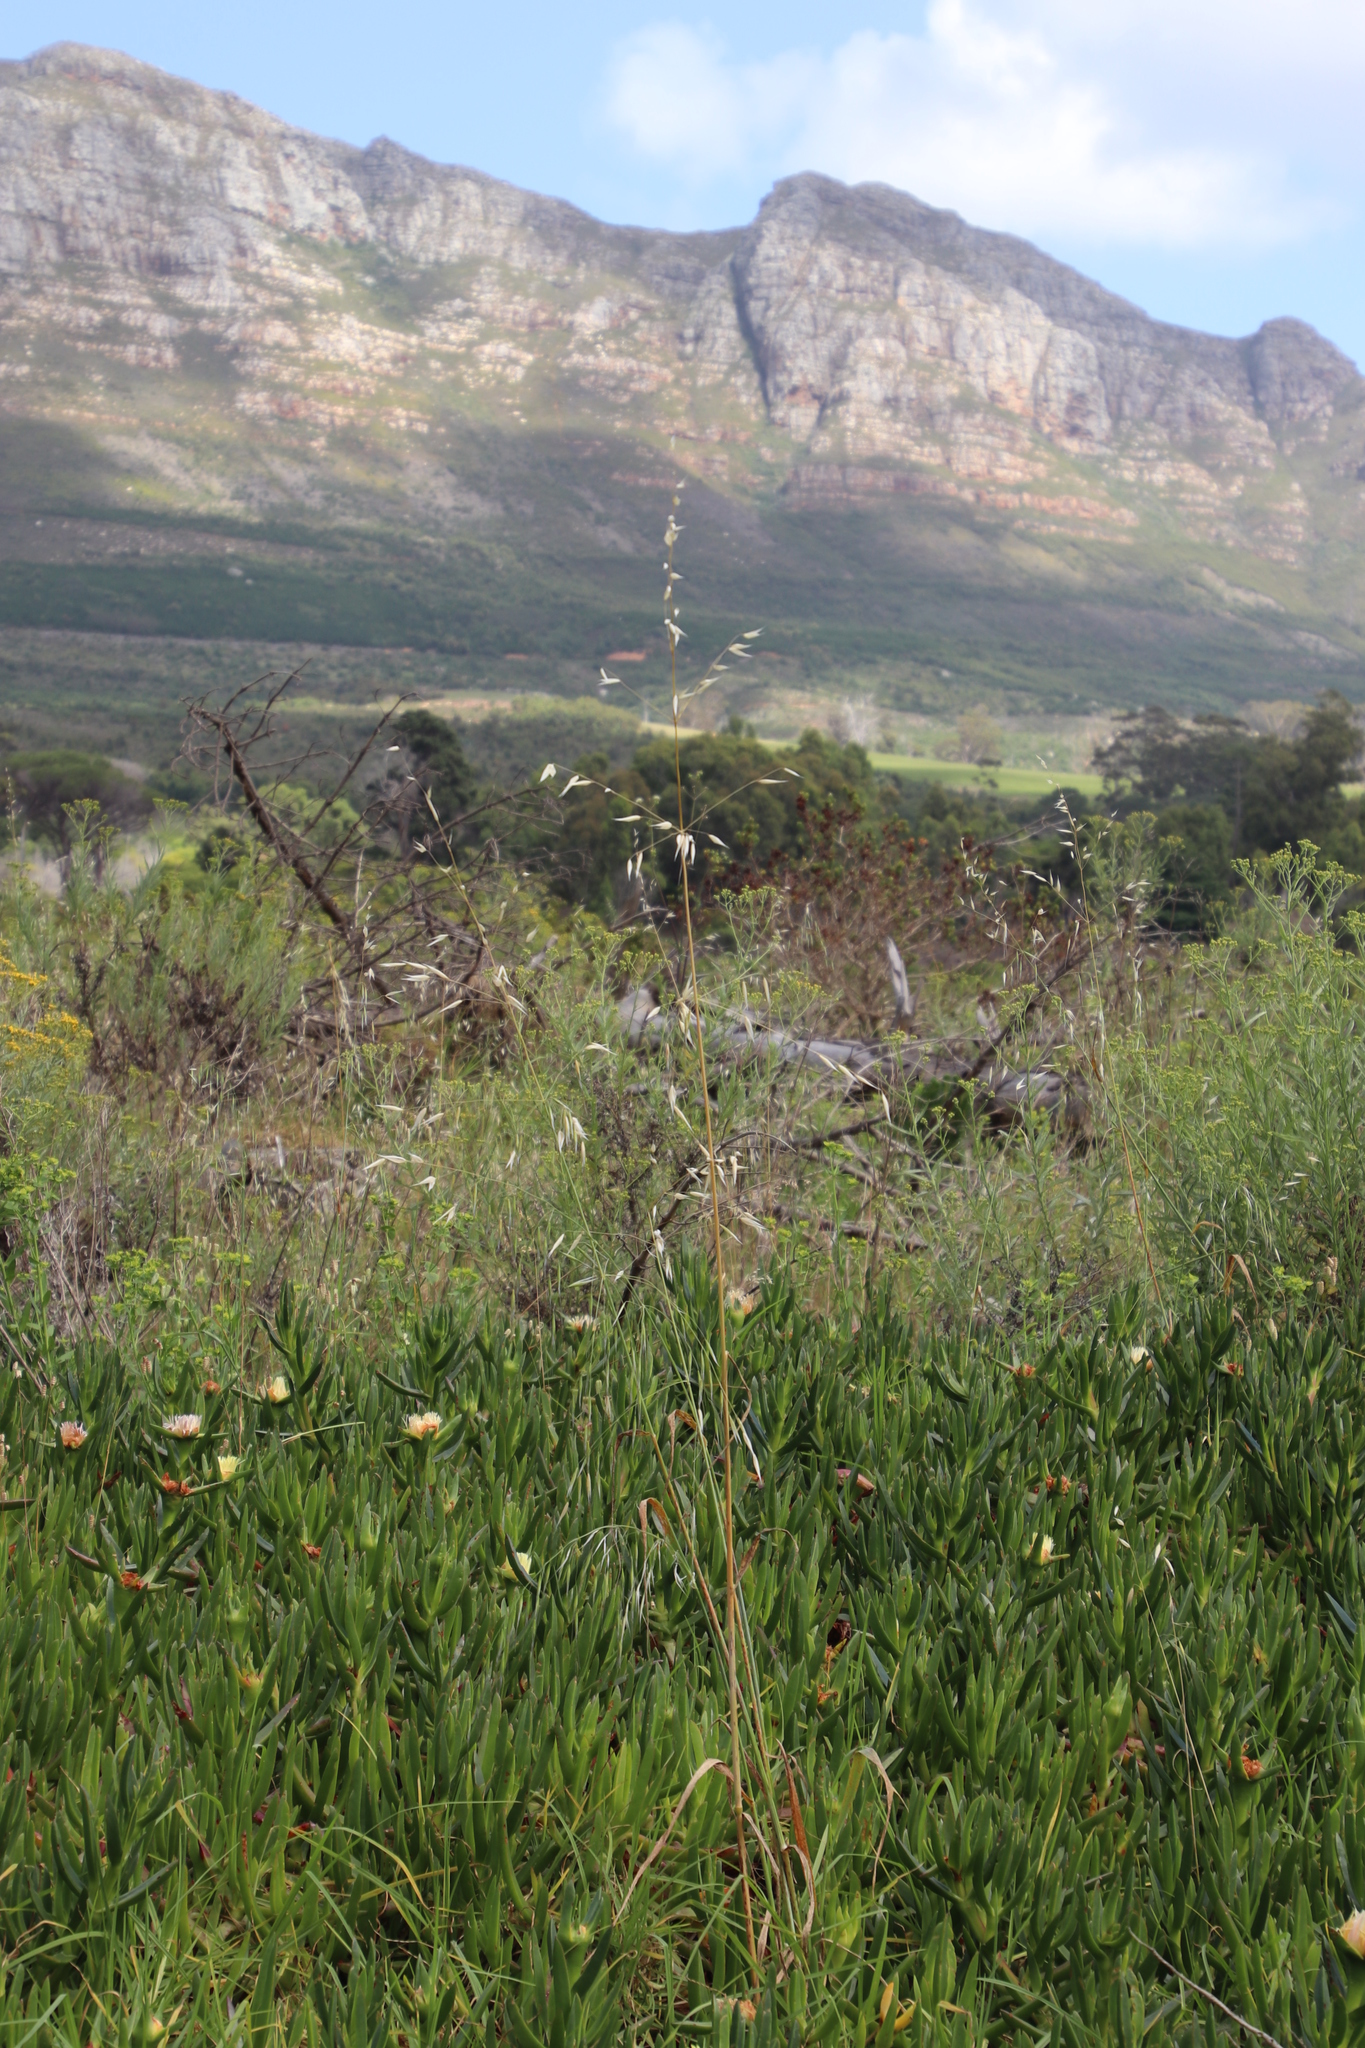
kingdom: Plantae
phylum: Tracheophyta
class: Liliopsida
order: Poales
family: Poaceae
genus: Avena
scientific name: Avena fatua
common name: Wild oat
